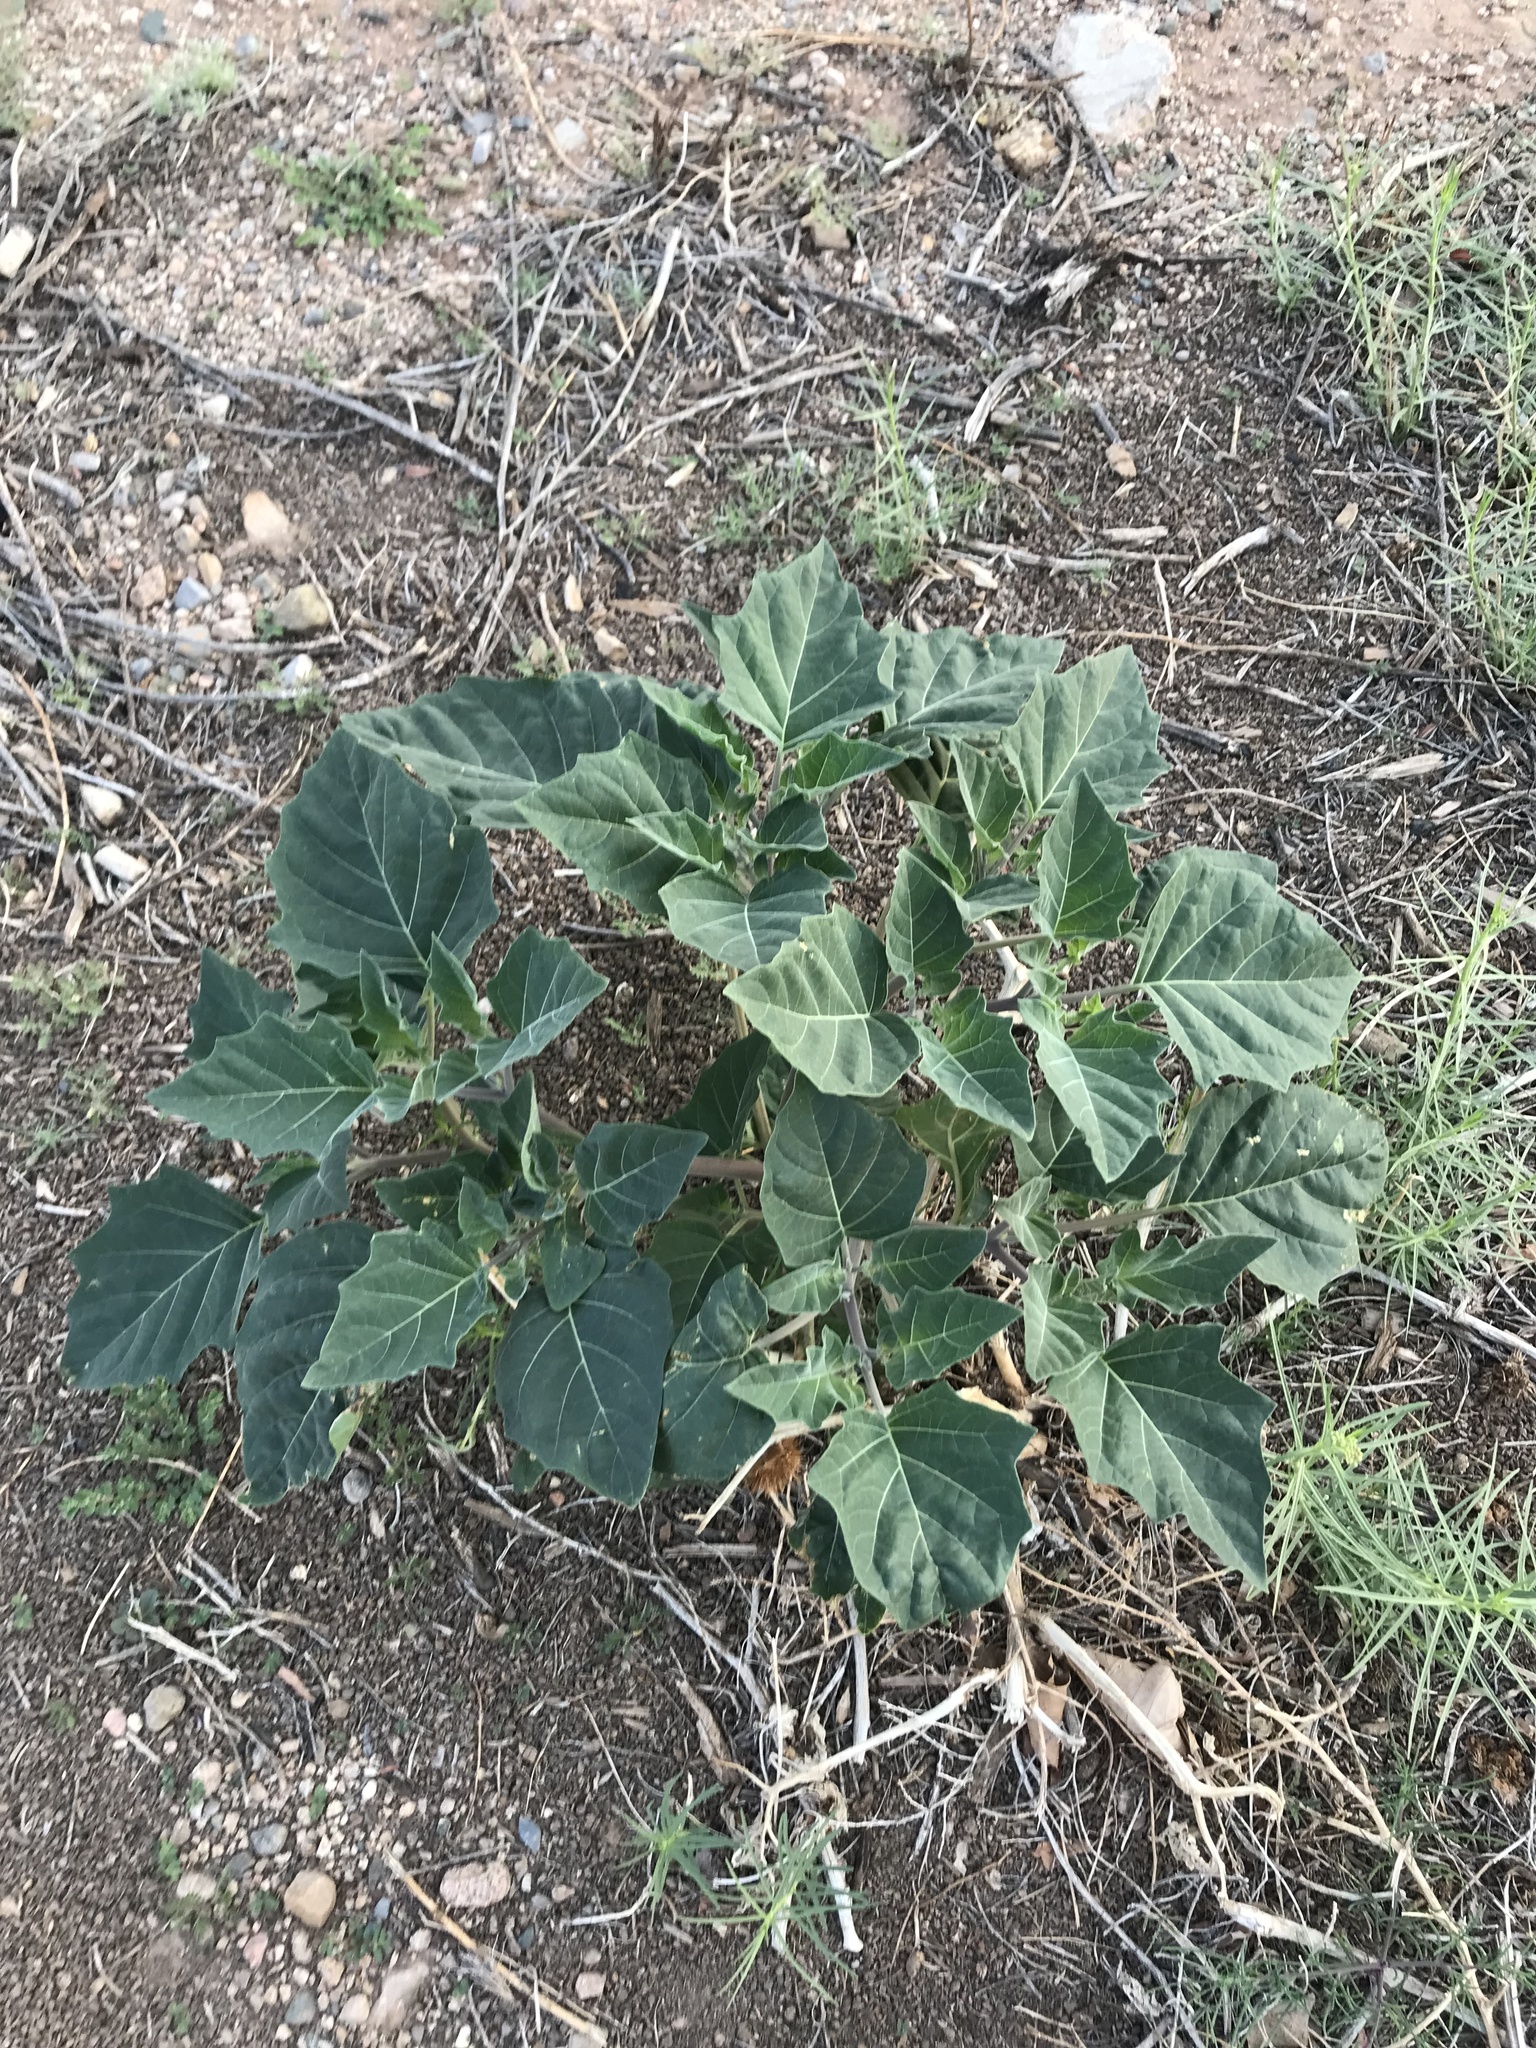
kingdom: Plantae
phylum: Tracheophyta
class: Magnoliopsida
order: Solanales
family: Solanaceae
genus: Datura
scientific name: Datura wrightii
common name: Sacred thorn-apple
